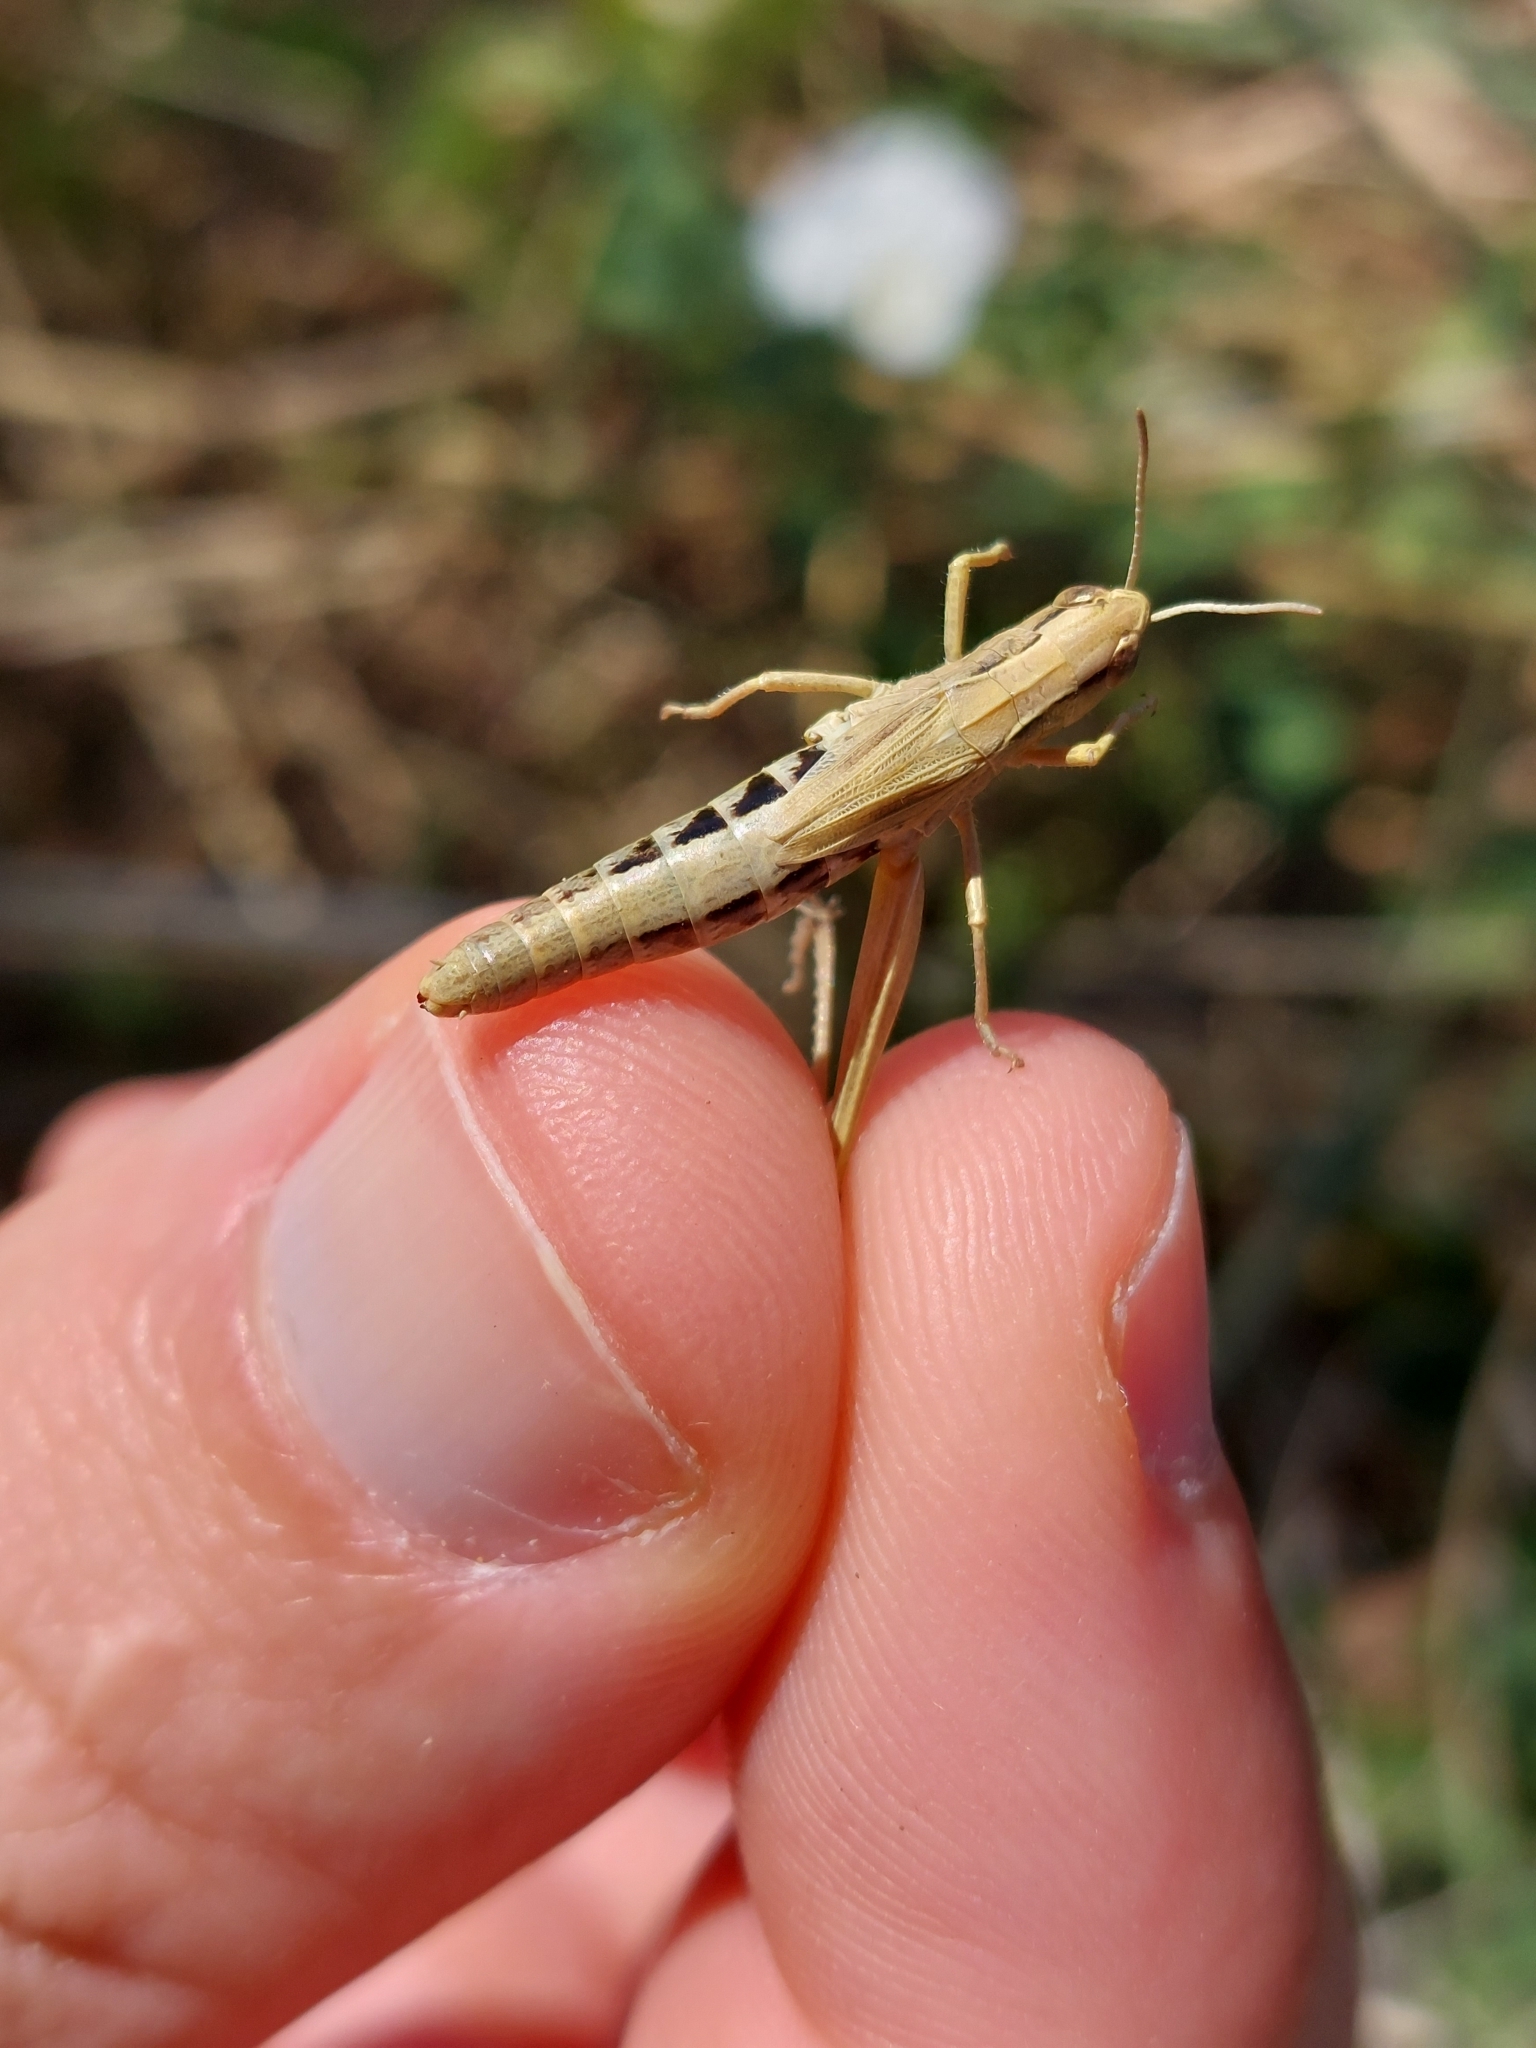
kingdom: Animalia
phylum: Arthropoda
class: Insecta
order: Orthoptera
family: Acrididae
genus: Pseudochorthippus
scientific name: Pseudochorthippus parallelus
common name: Meadow grasshopper
